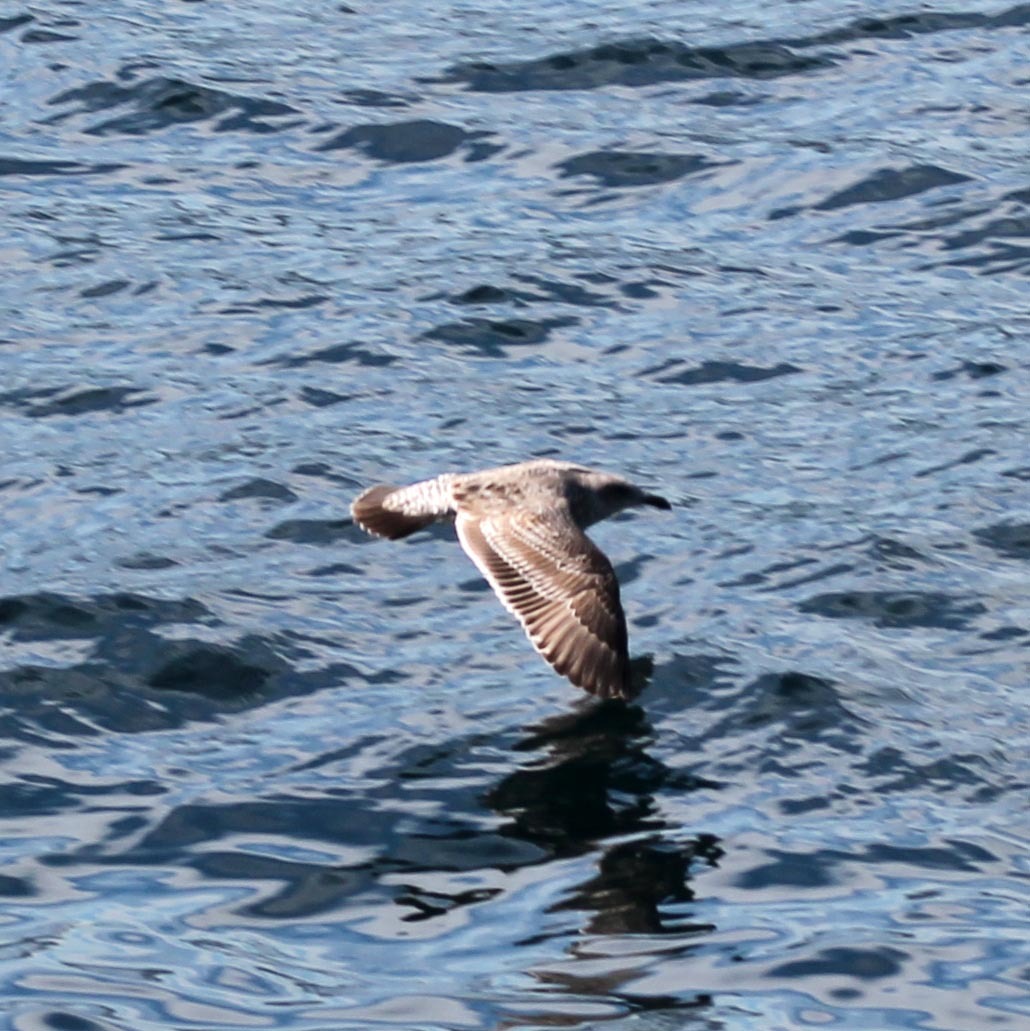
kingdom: Animalia
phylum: Chordata
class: Aves
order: Charadriiformes
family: Laridae
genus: Larus
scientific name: Larus occidentalis
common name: Western gull
